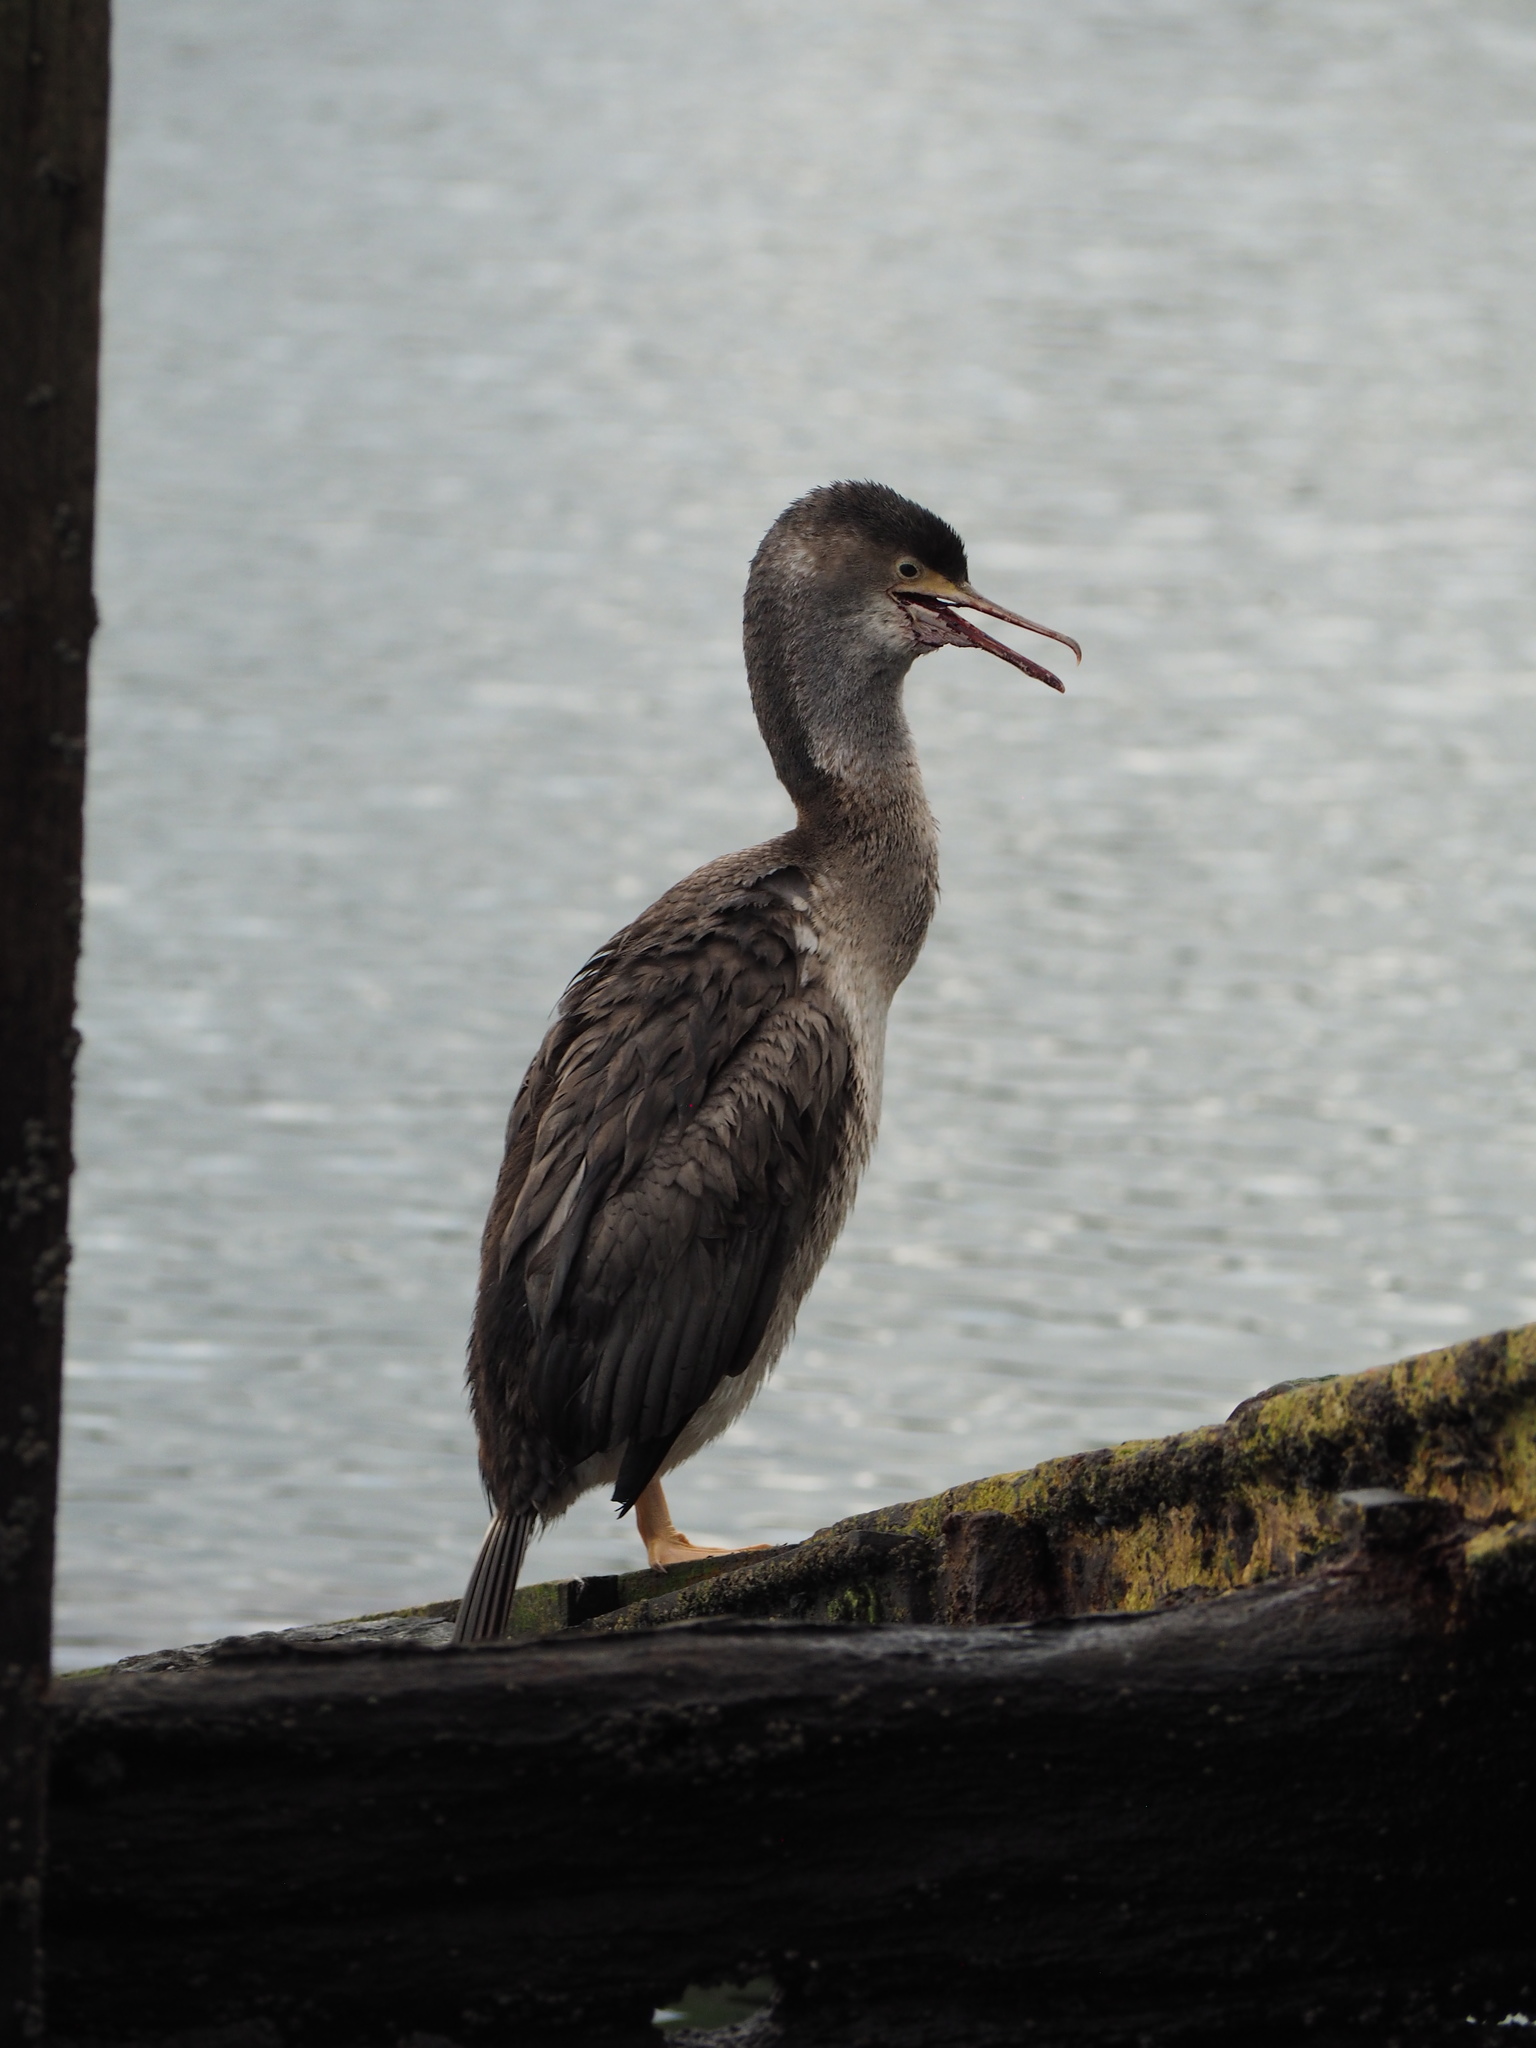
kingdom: Animalia
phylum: Chordata
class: Aves
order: Suliformes
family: Phalacrocoracidae
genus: Phalacrocorax
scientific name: Phalacrocorax punctatus
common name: Spotted shag
